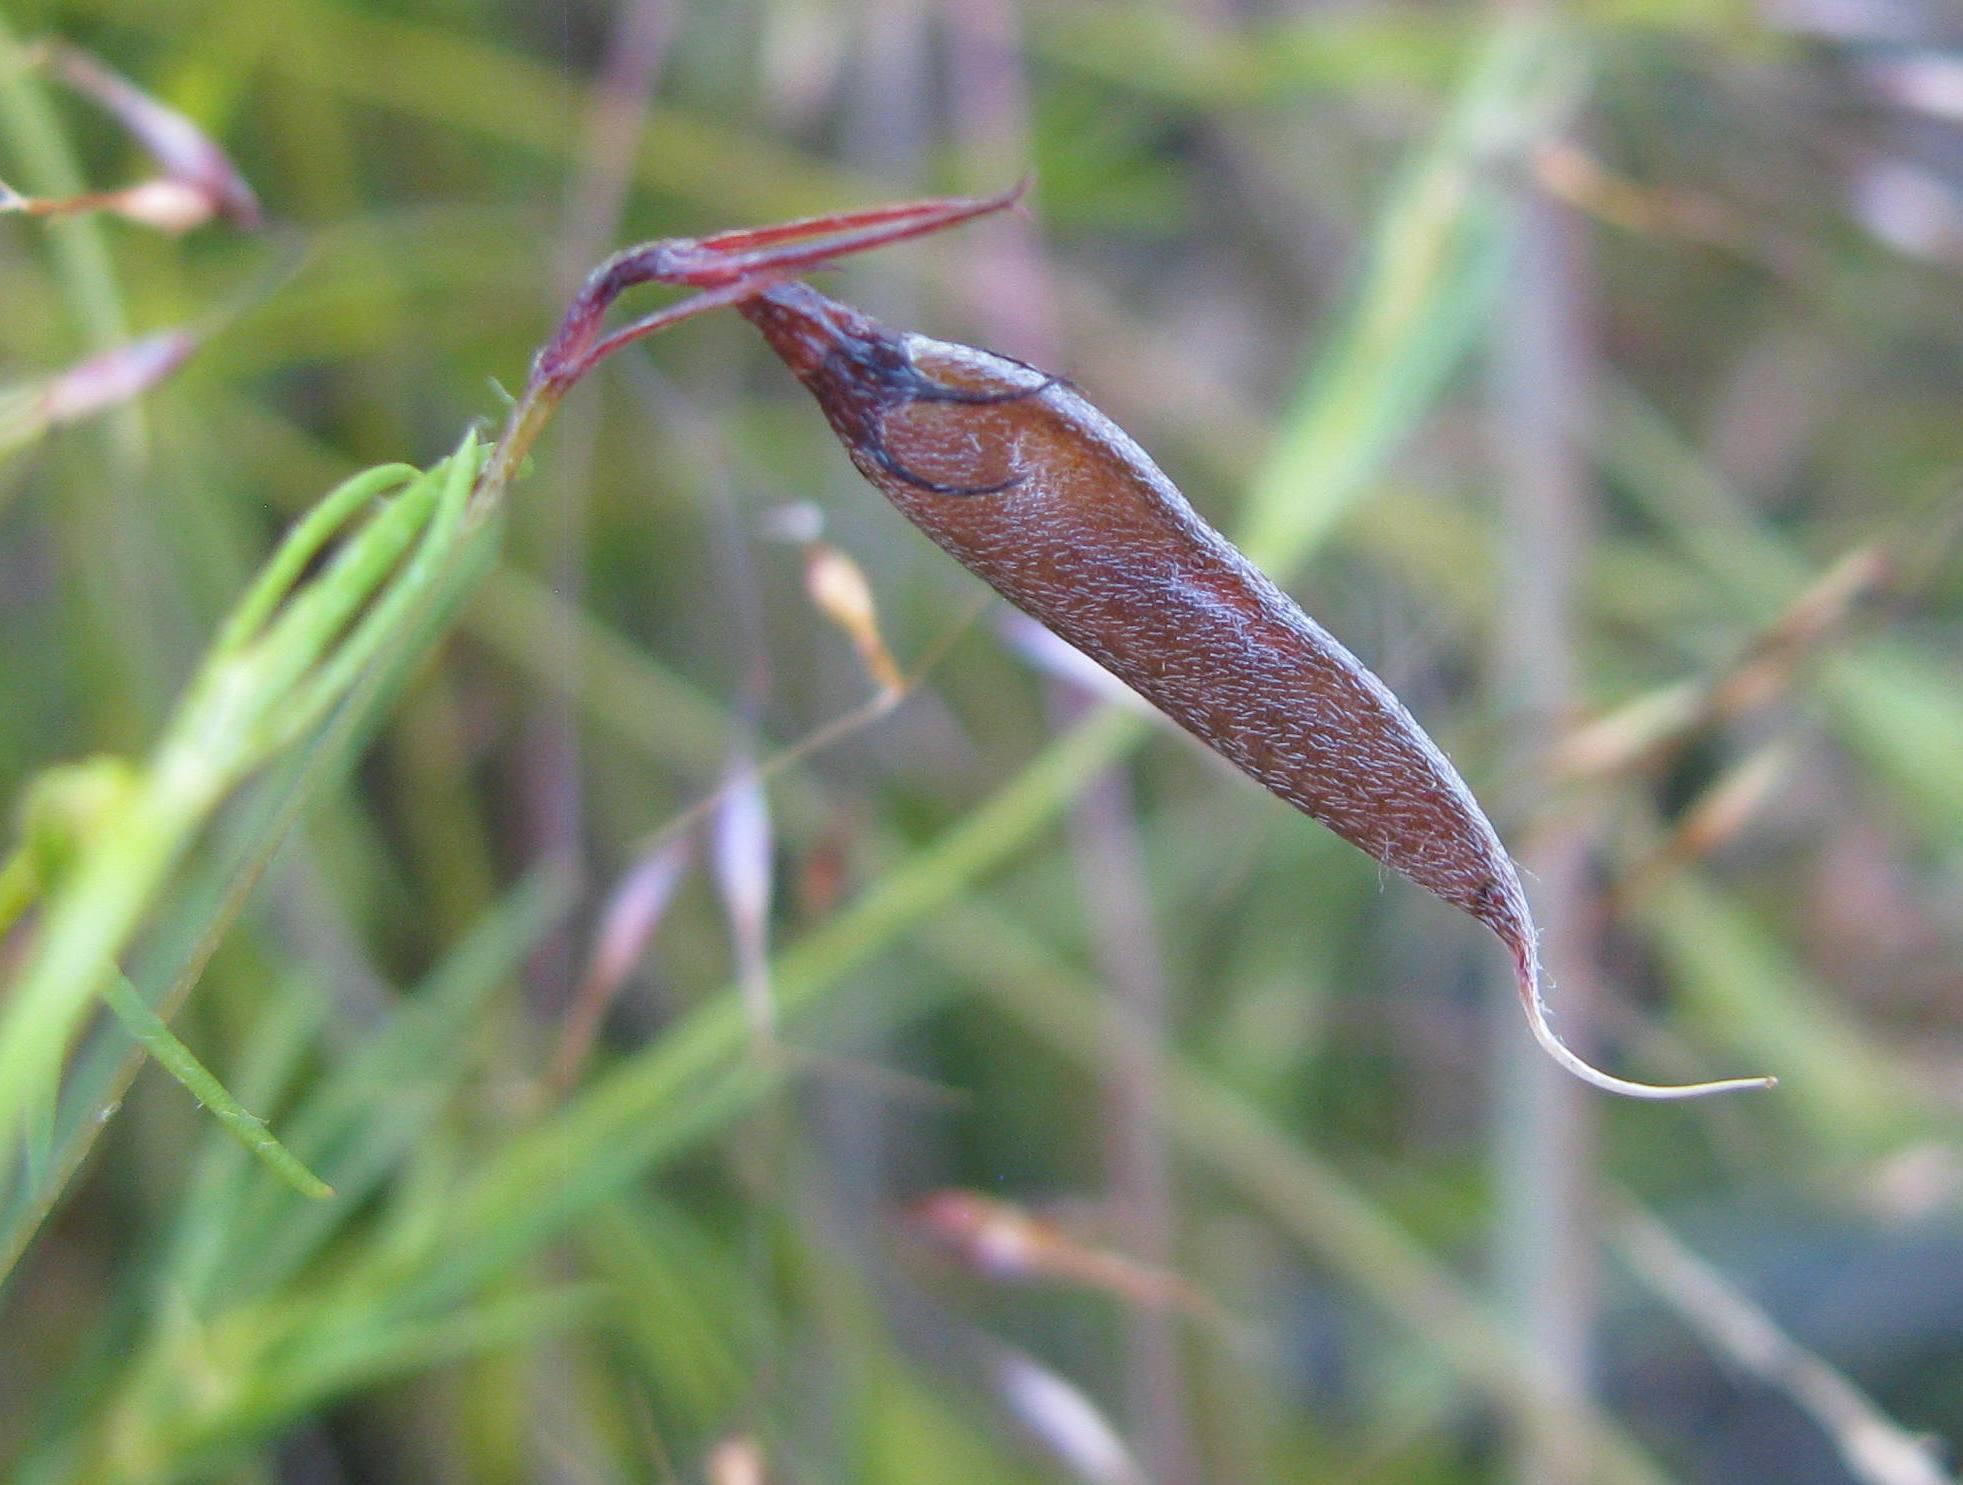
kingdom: Plantae
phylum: Tracheophyta
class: Magnoliopsida
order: Fabales
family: Fabaceae
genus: Aspalathus
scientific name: Aspalathus bracteata
